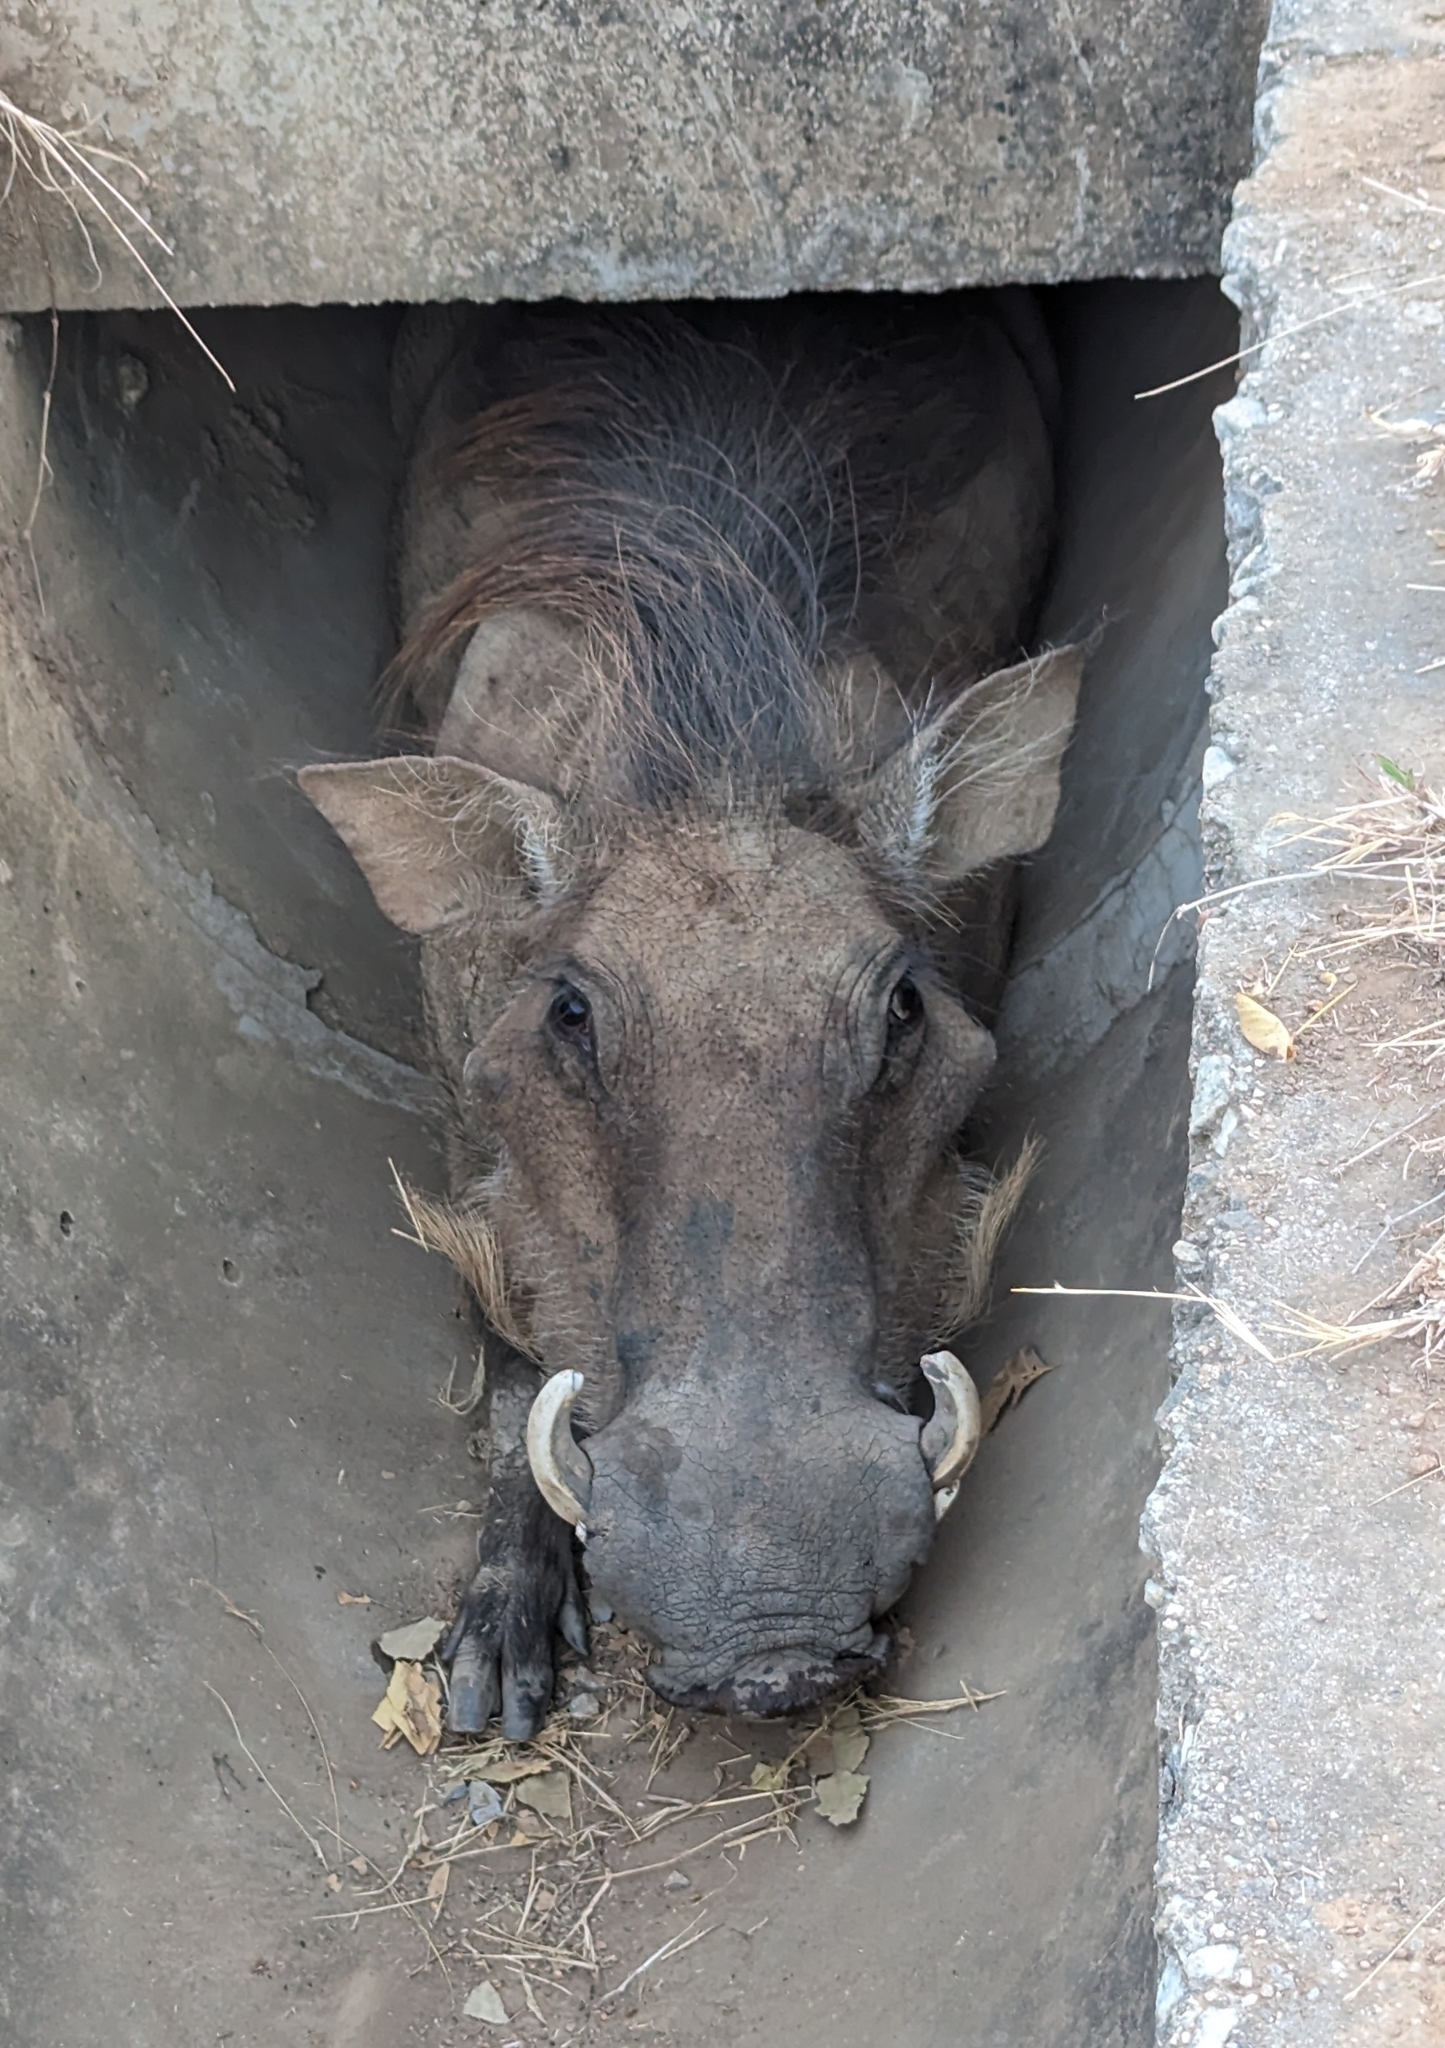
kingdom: Animalia
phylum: Chordata
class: Mammalia
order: Artiodactyla
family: Suidae
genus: Phacochoerus
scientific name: Phacochoerus africanus
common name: Common warthog
